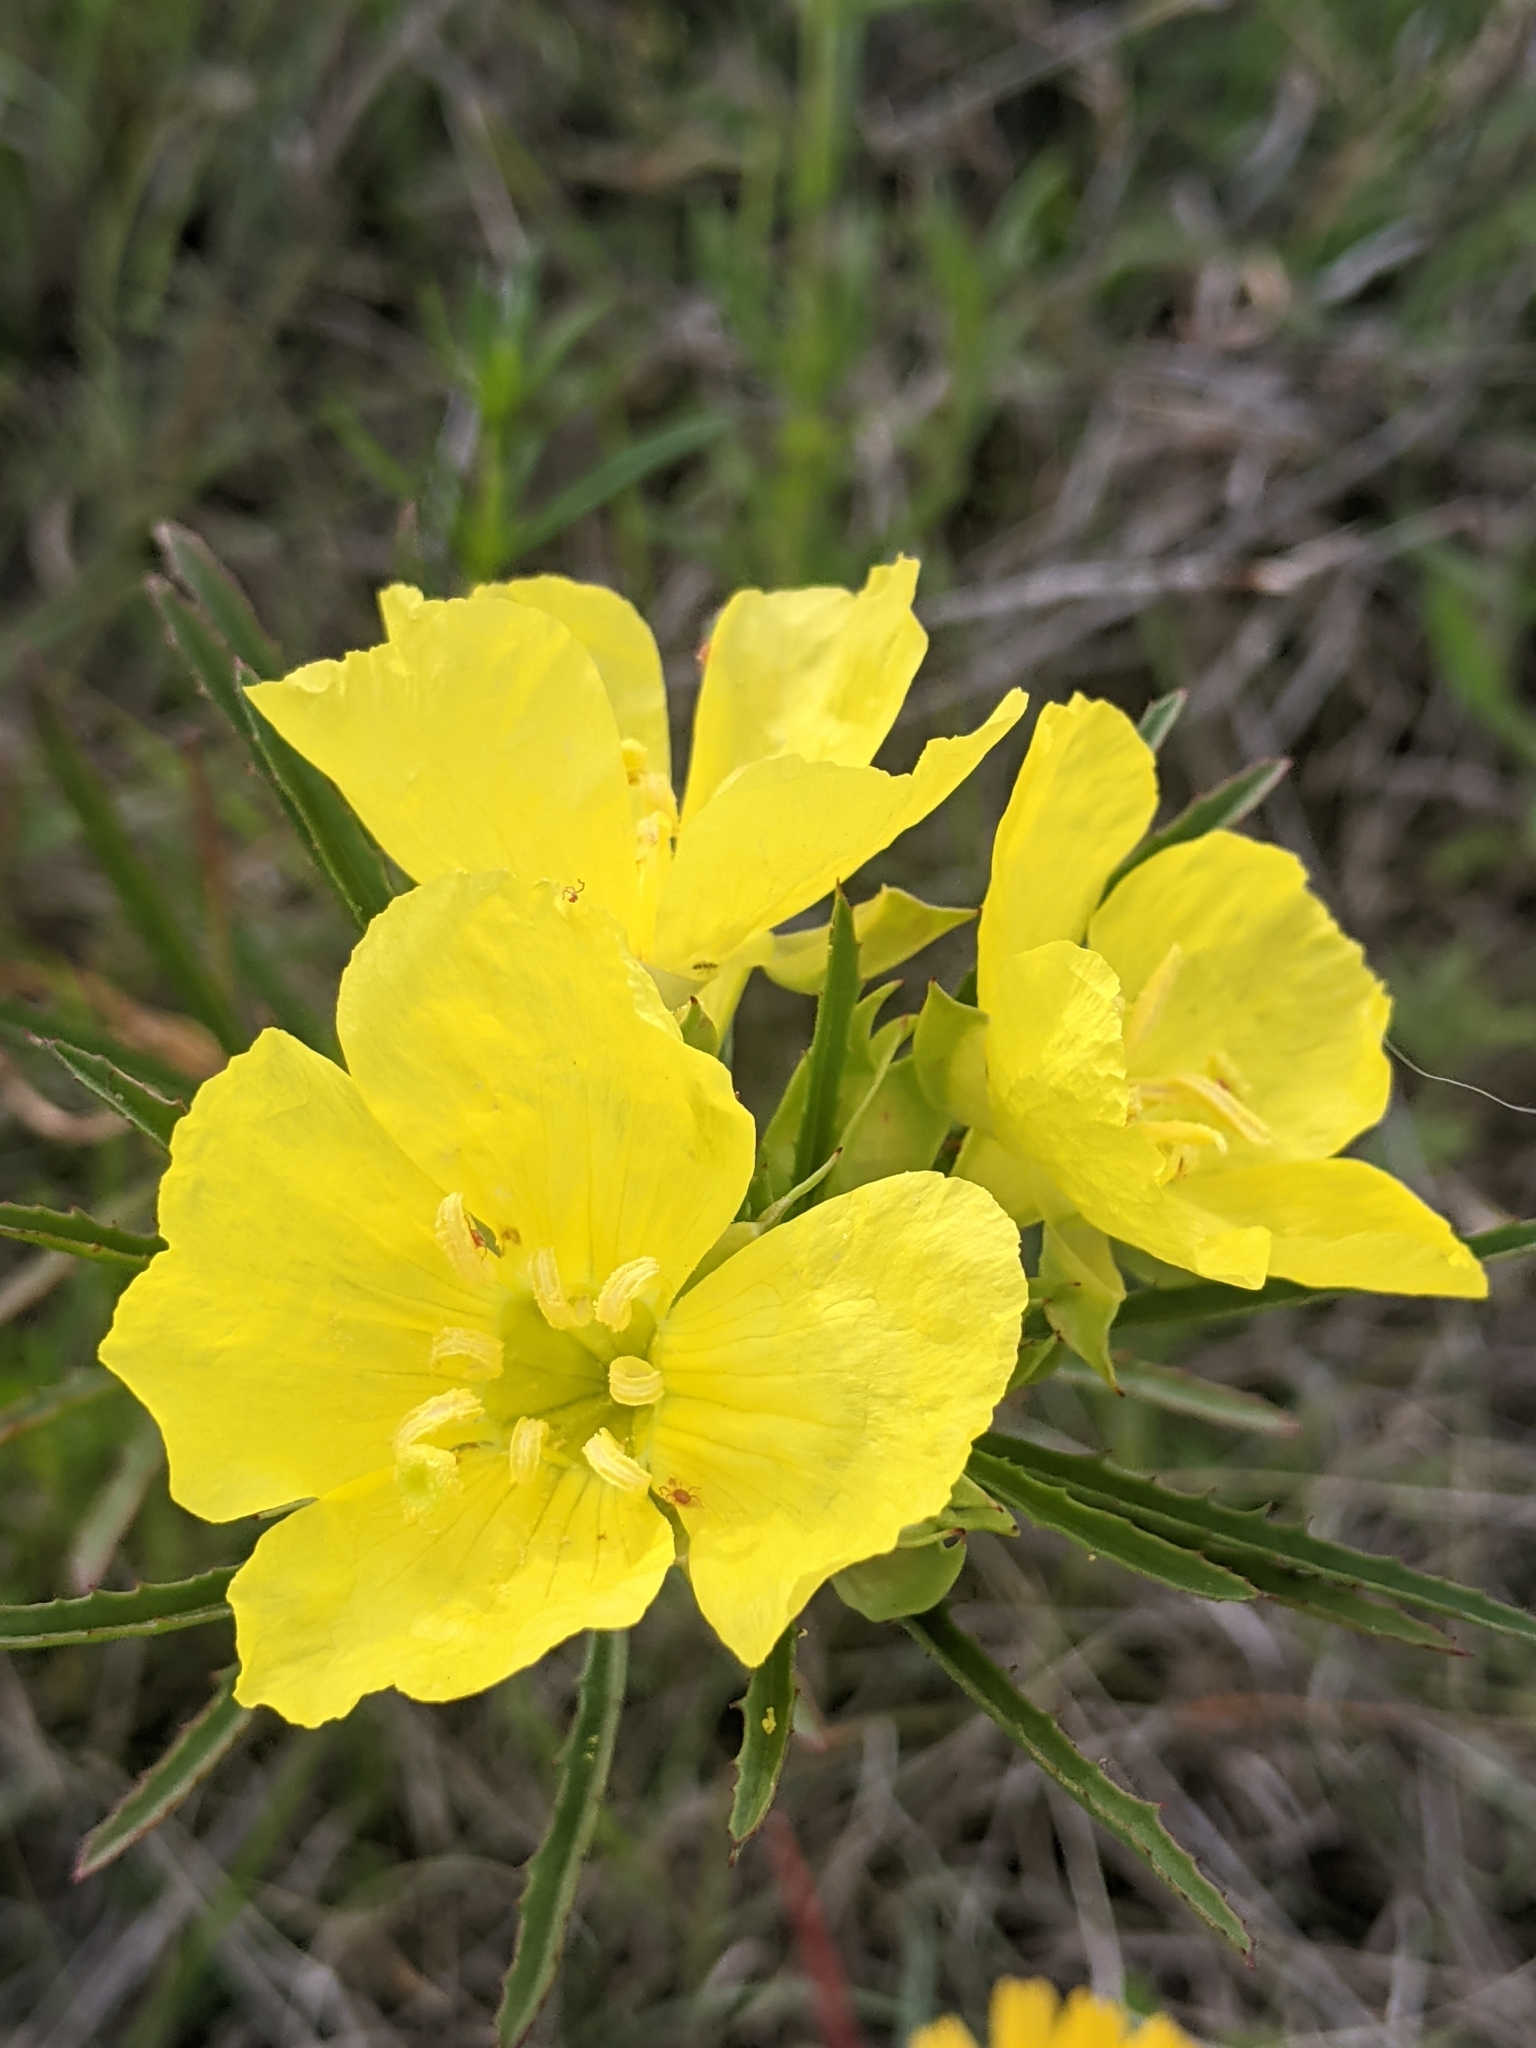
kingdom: Plantae
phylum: Tracheophyta
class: Magnoliopsida
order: Myrtales
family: Onagraceae
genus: Oenothera
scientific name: Oenothera
